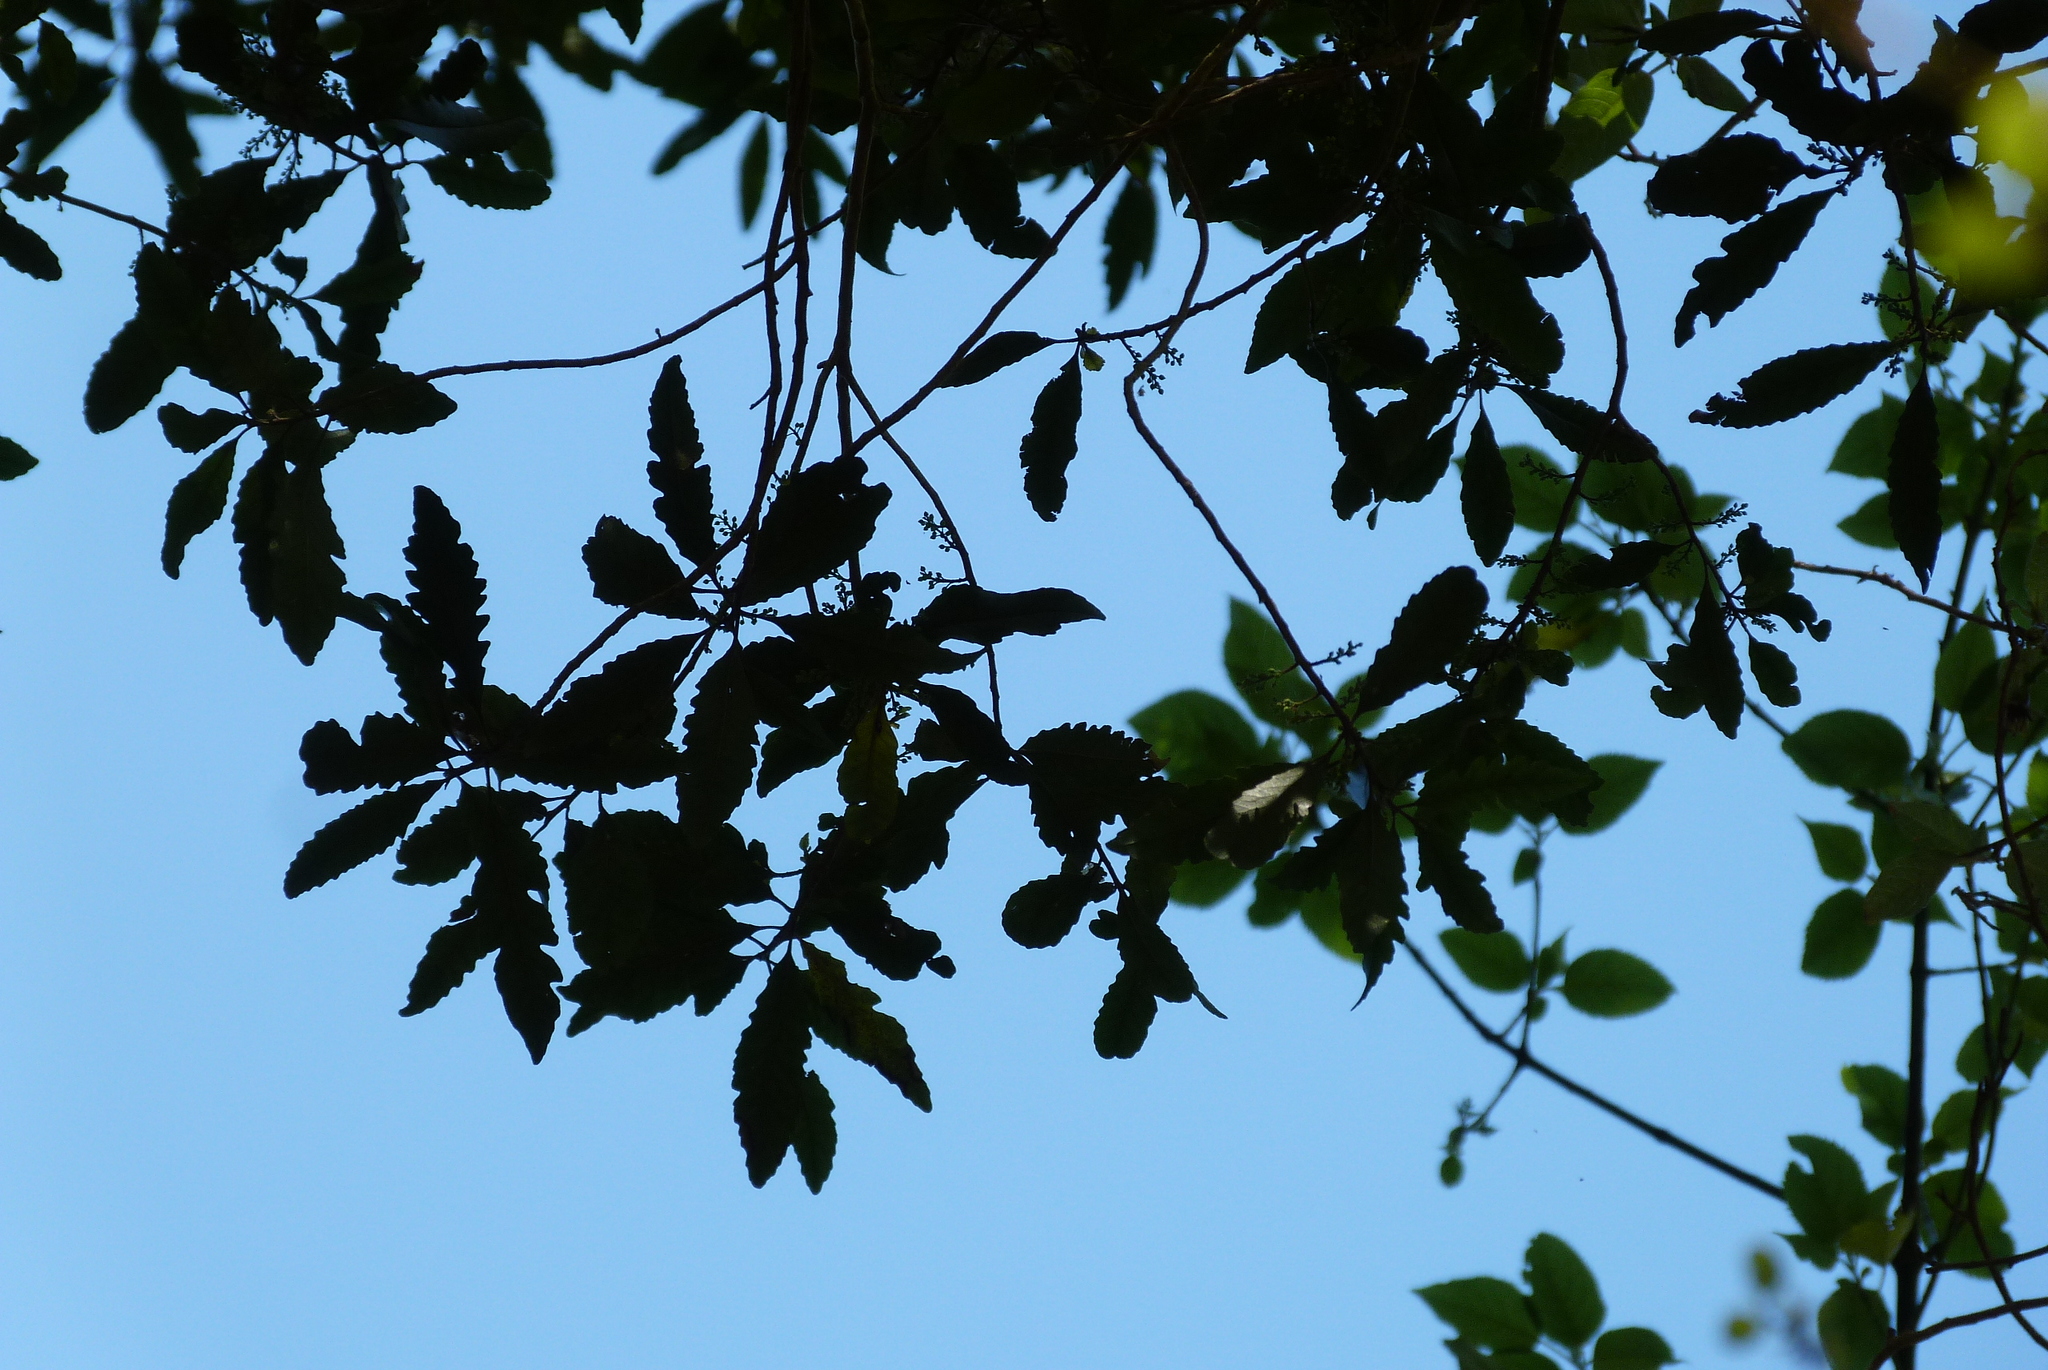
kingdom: Plantae
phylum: Tracheophyta
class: Magnoliopsida
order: Oxalidales
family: Elaeocarpaceae
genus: Elaeocarpus
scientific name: Elaeocarpus hookerianus
